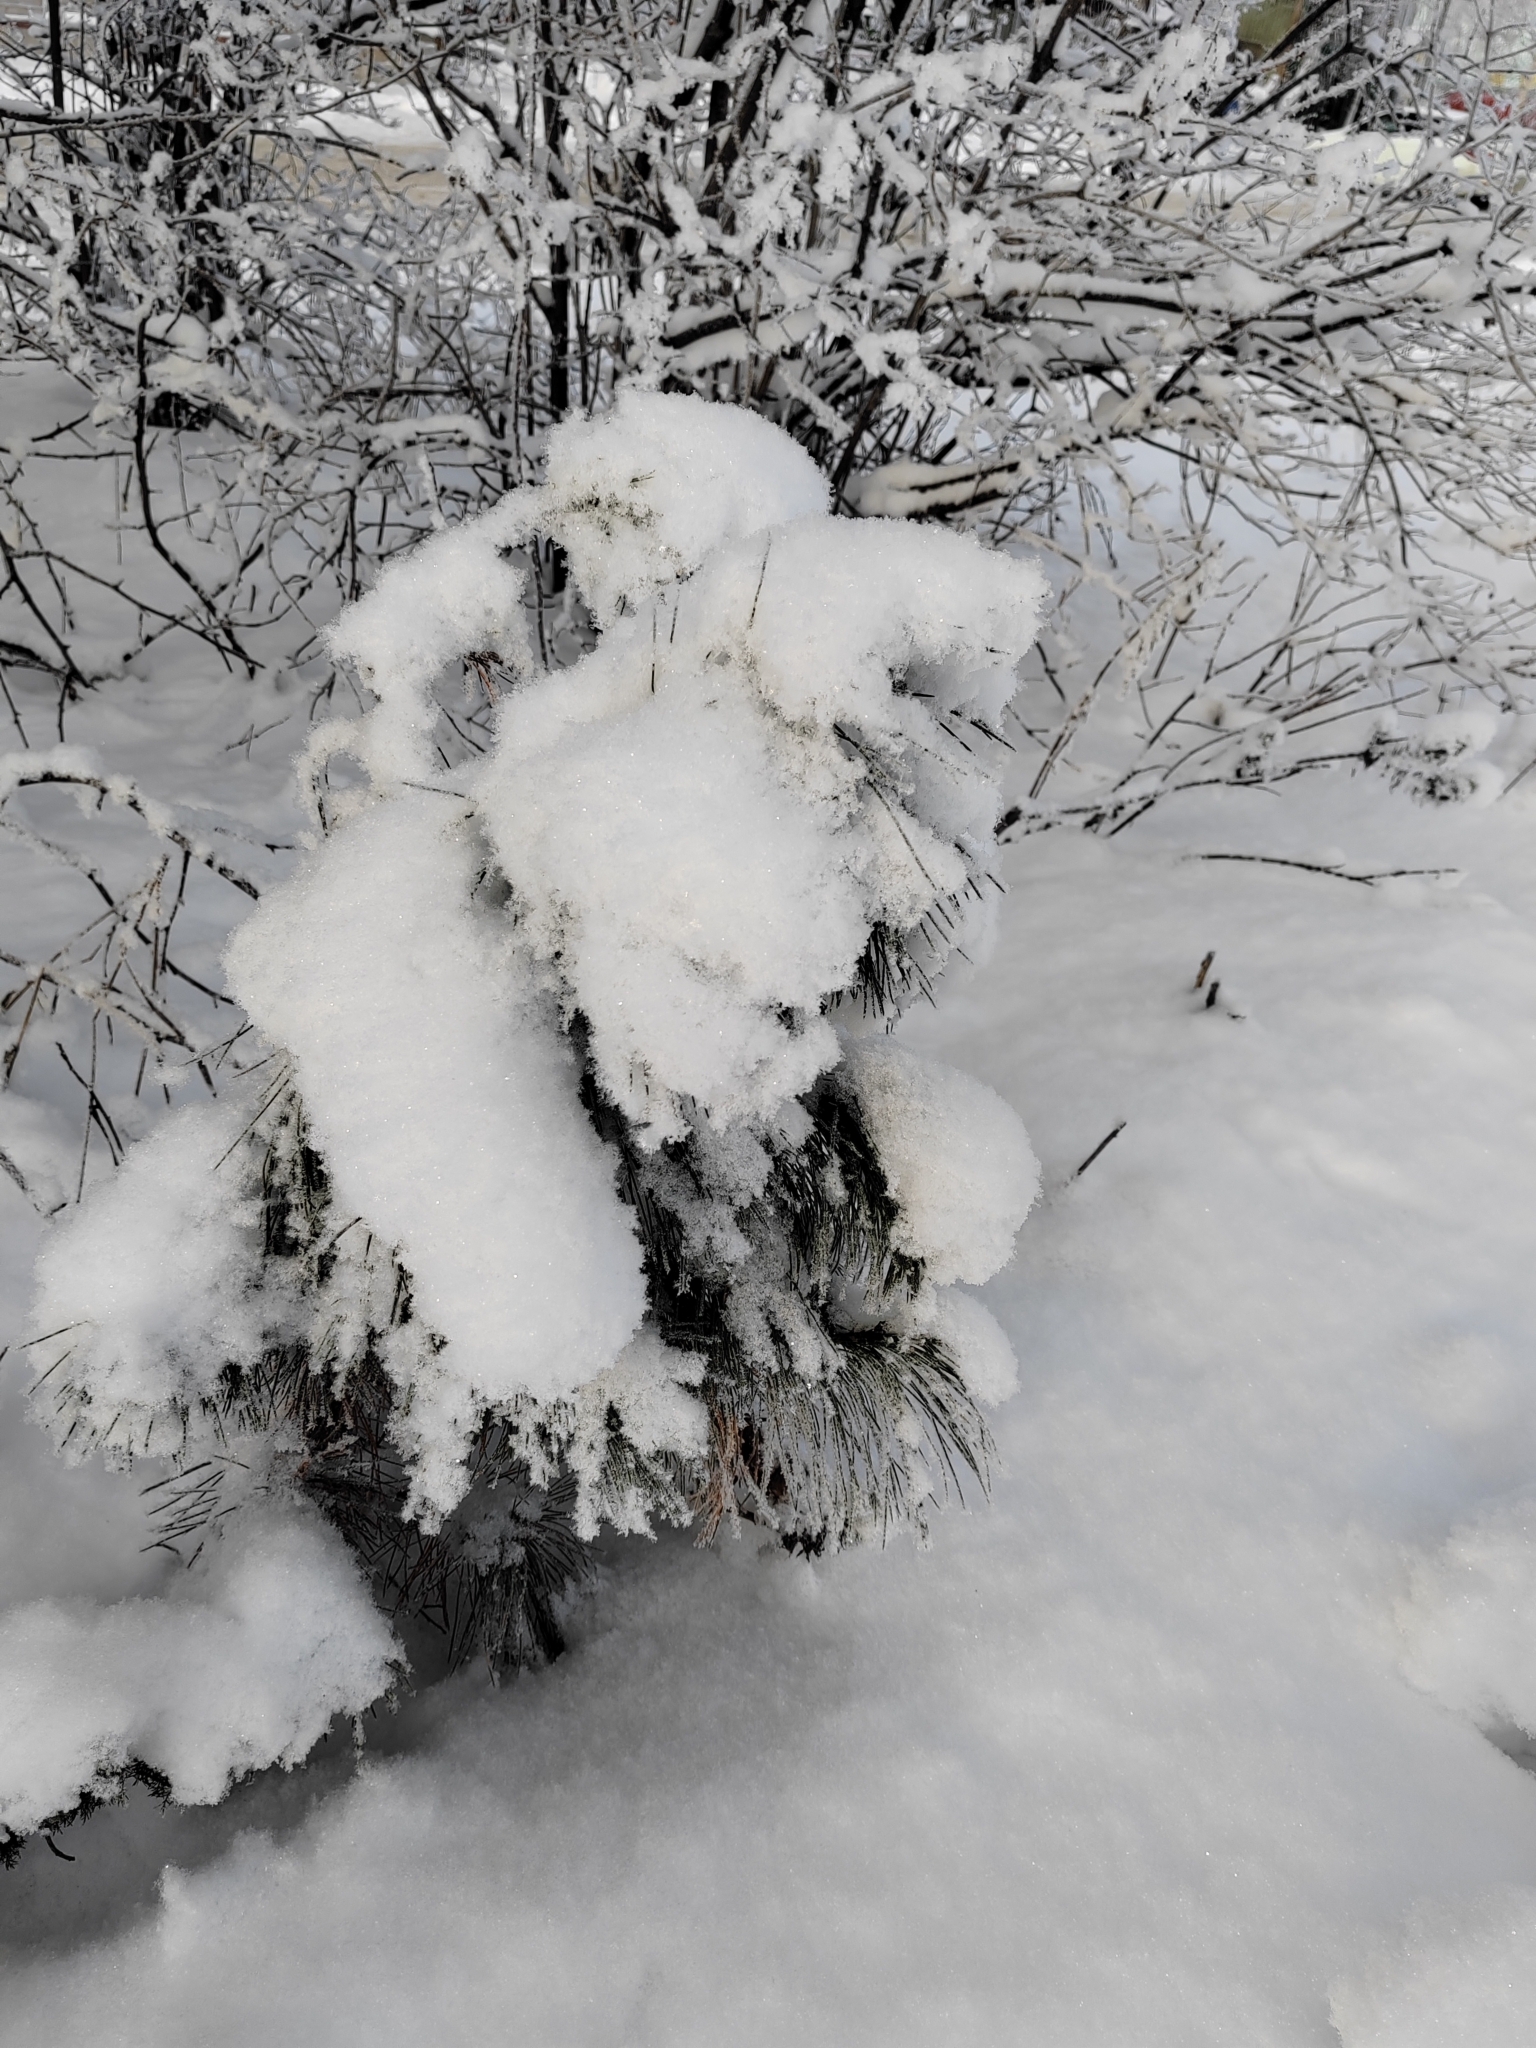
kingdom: Plantae
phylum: Tracheophyta
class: Pinopsida
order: Pinales
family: Pinaceae
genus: Pinus
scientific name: Pinus sibirica
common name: Siberian pine
